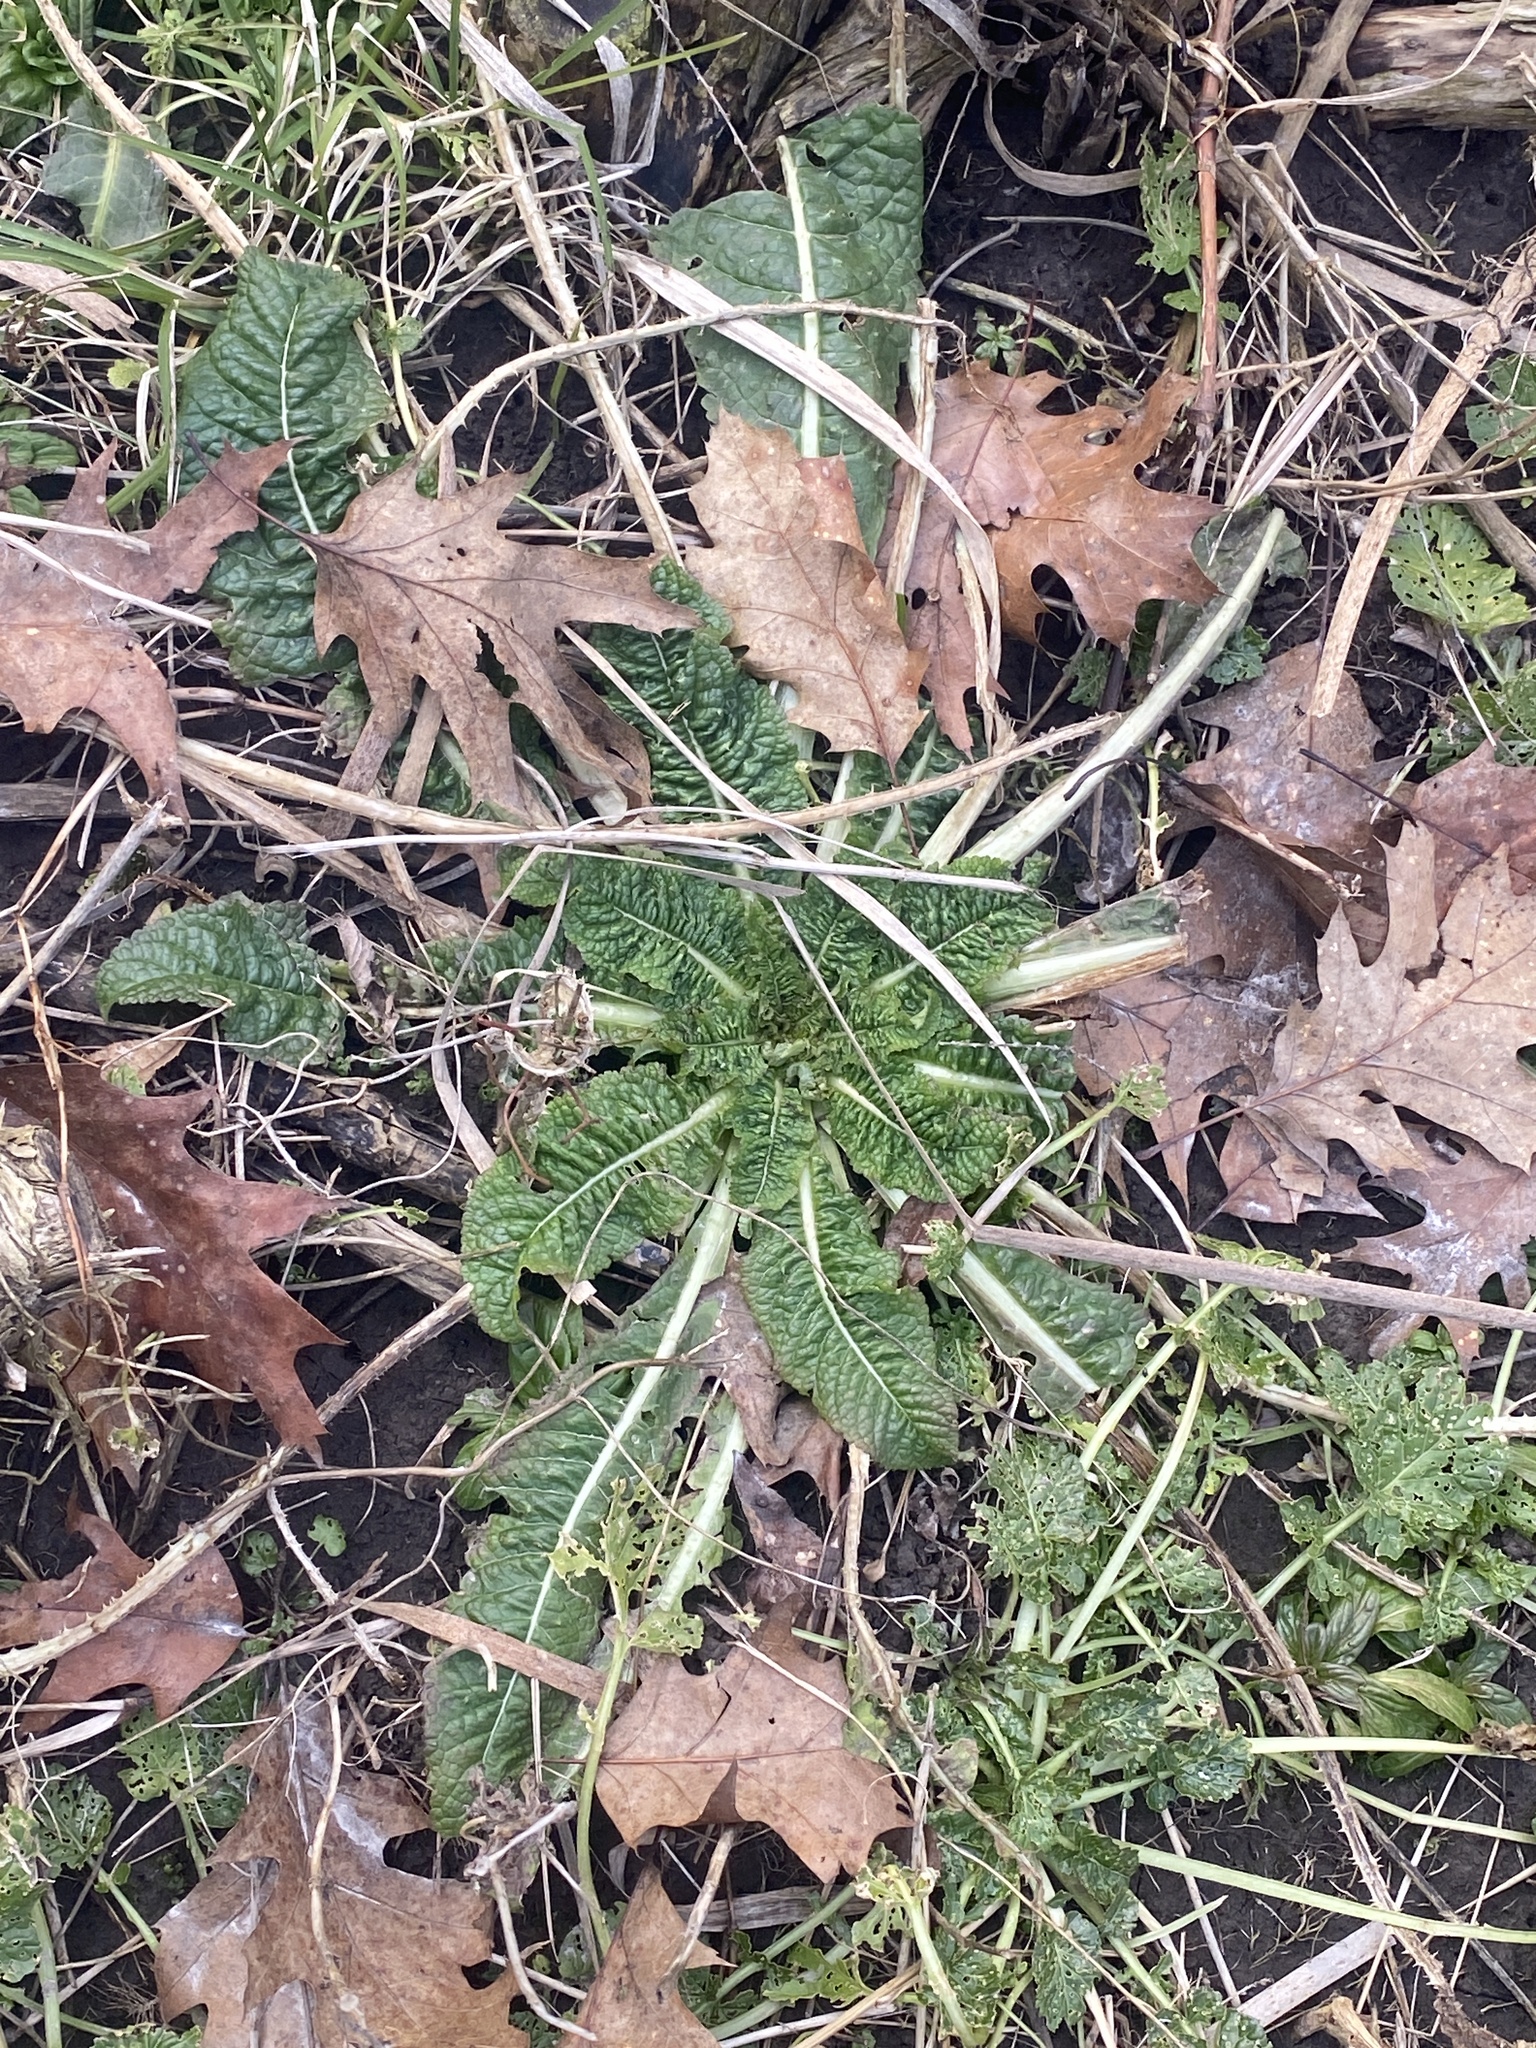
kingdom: Plantae
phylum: Tracheophyta
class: Magnoliopsida
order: Dipsacales
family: Caprifoliaceae
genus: Dipsacus
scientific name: Dipsacus fullonum
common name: Teasel
